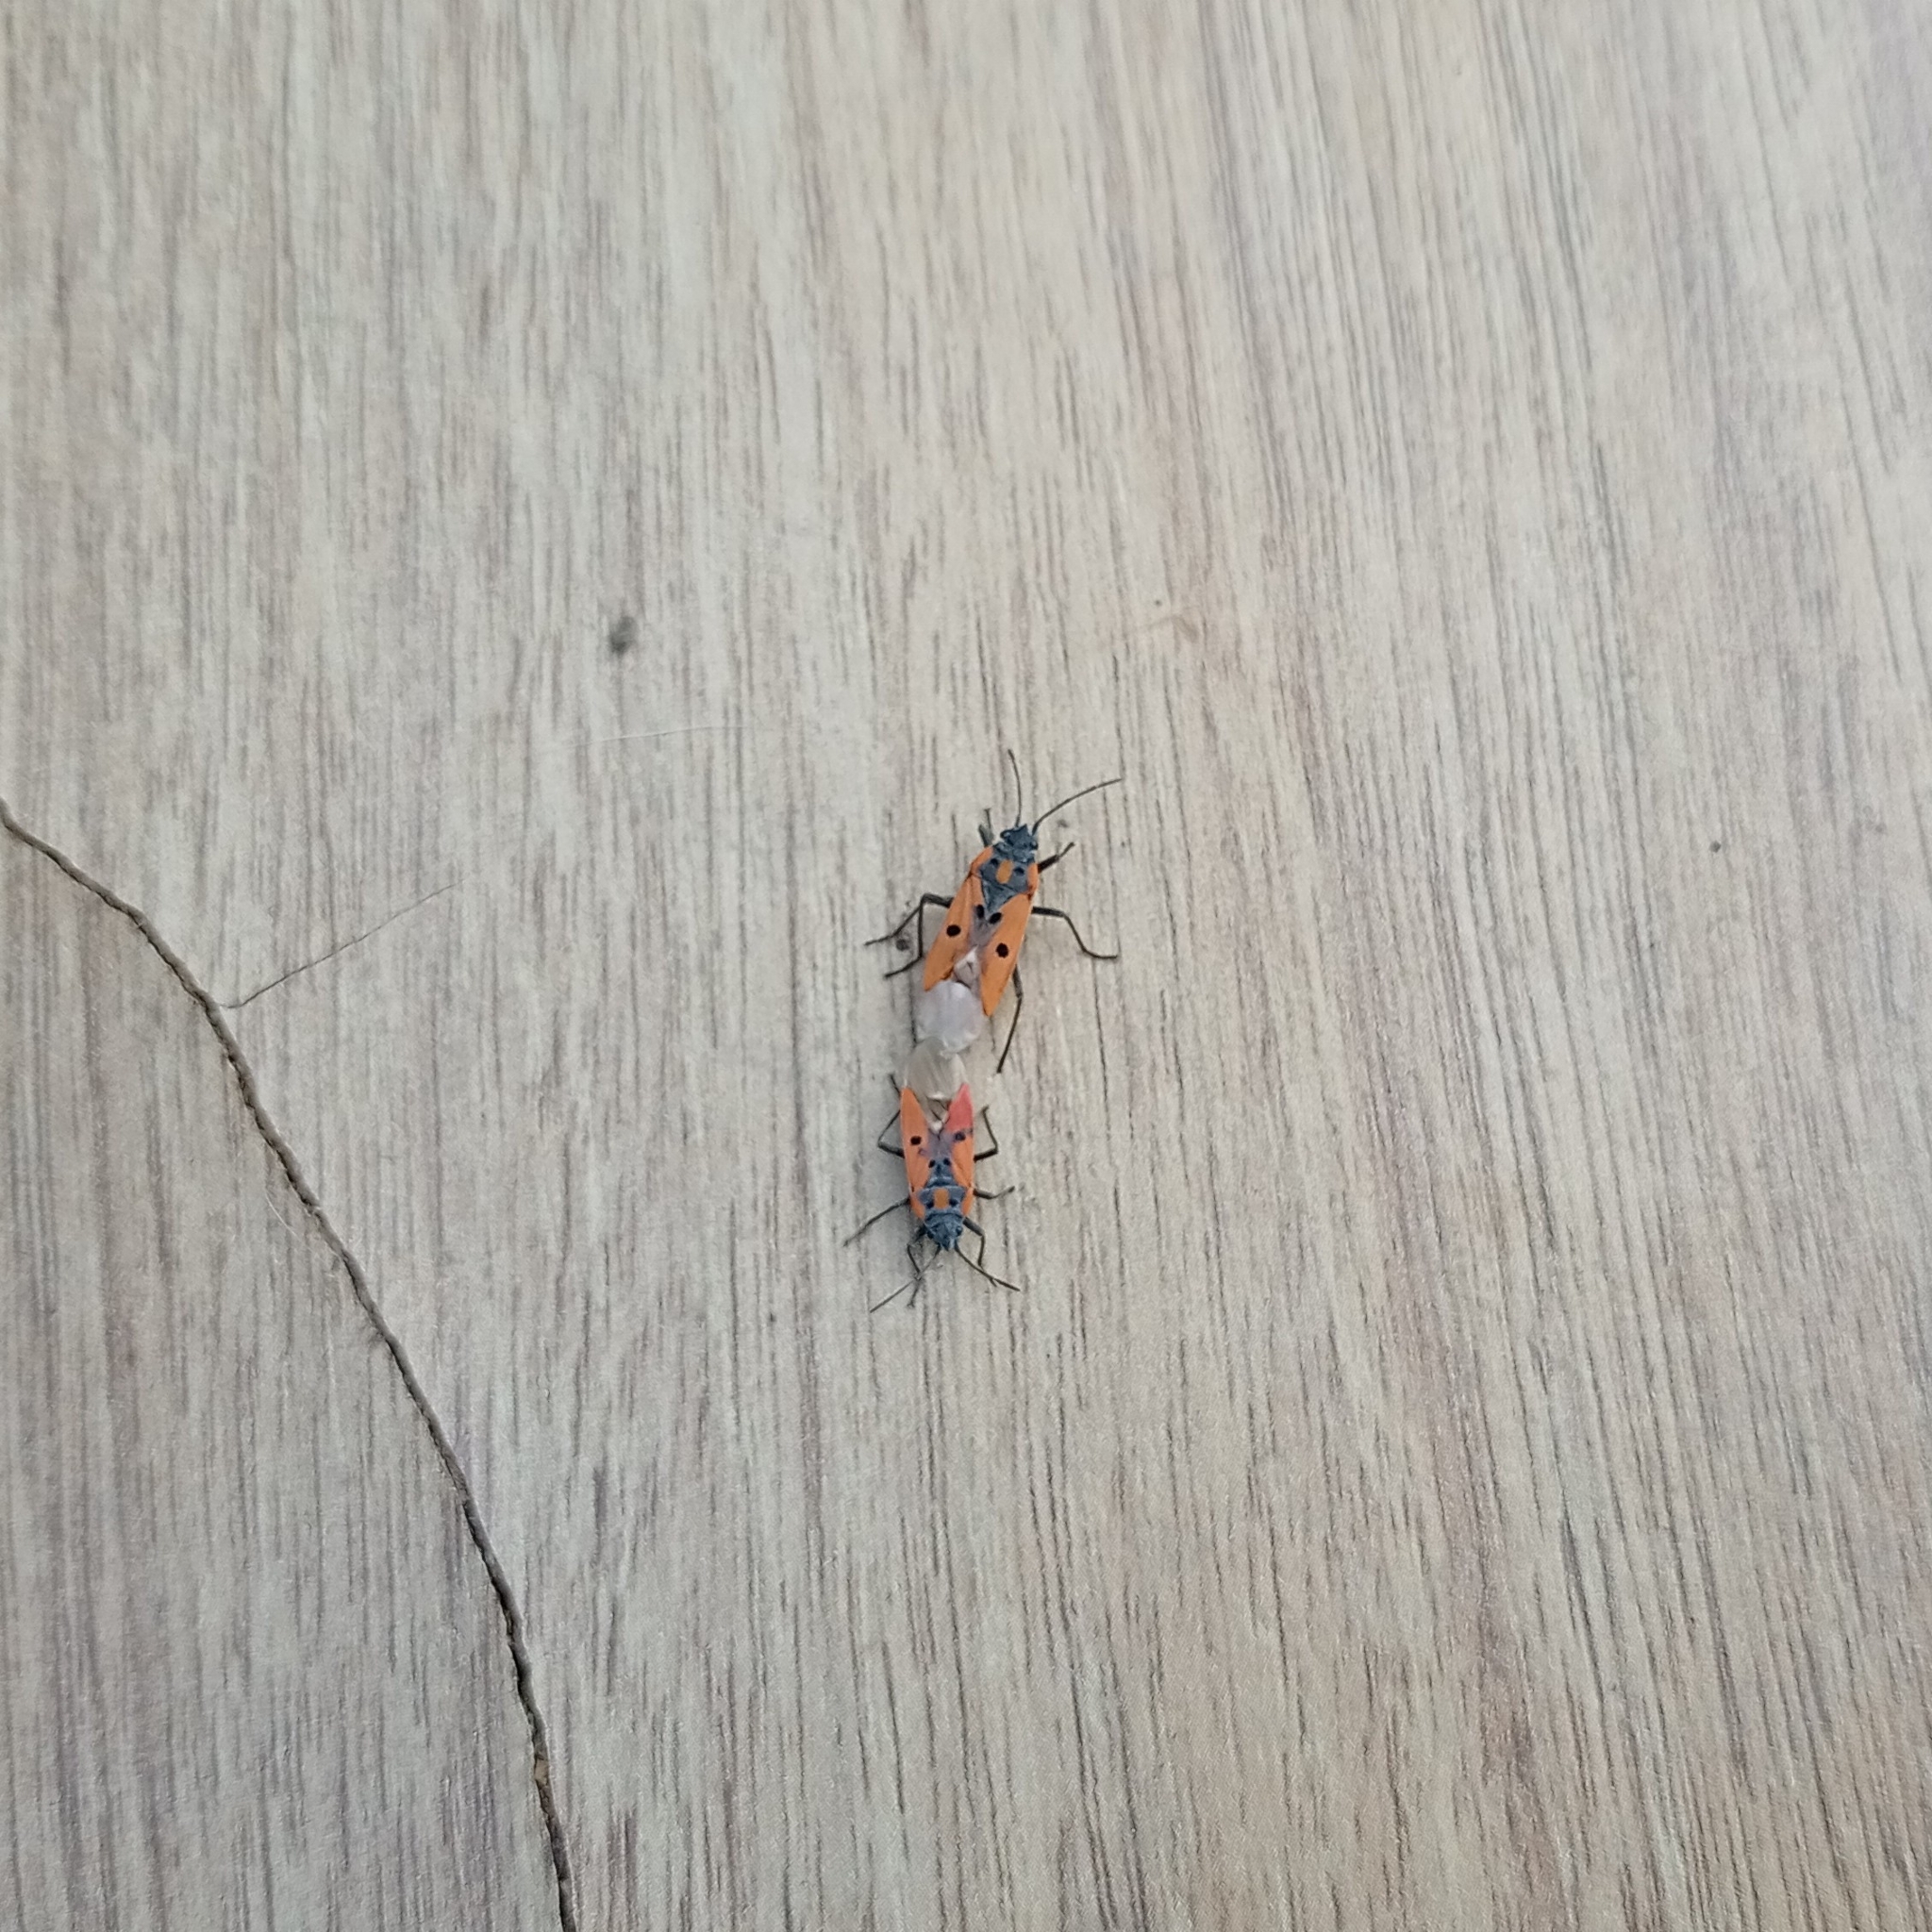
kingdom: Animalia
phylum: Arthropoda
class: Insecta
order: Hemiptera
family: Lygaeidae
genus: Lygaeus
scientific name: Lygaeus creticus
